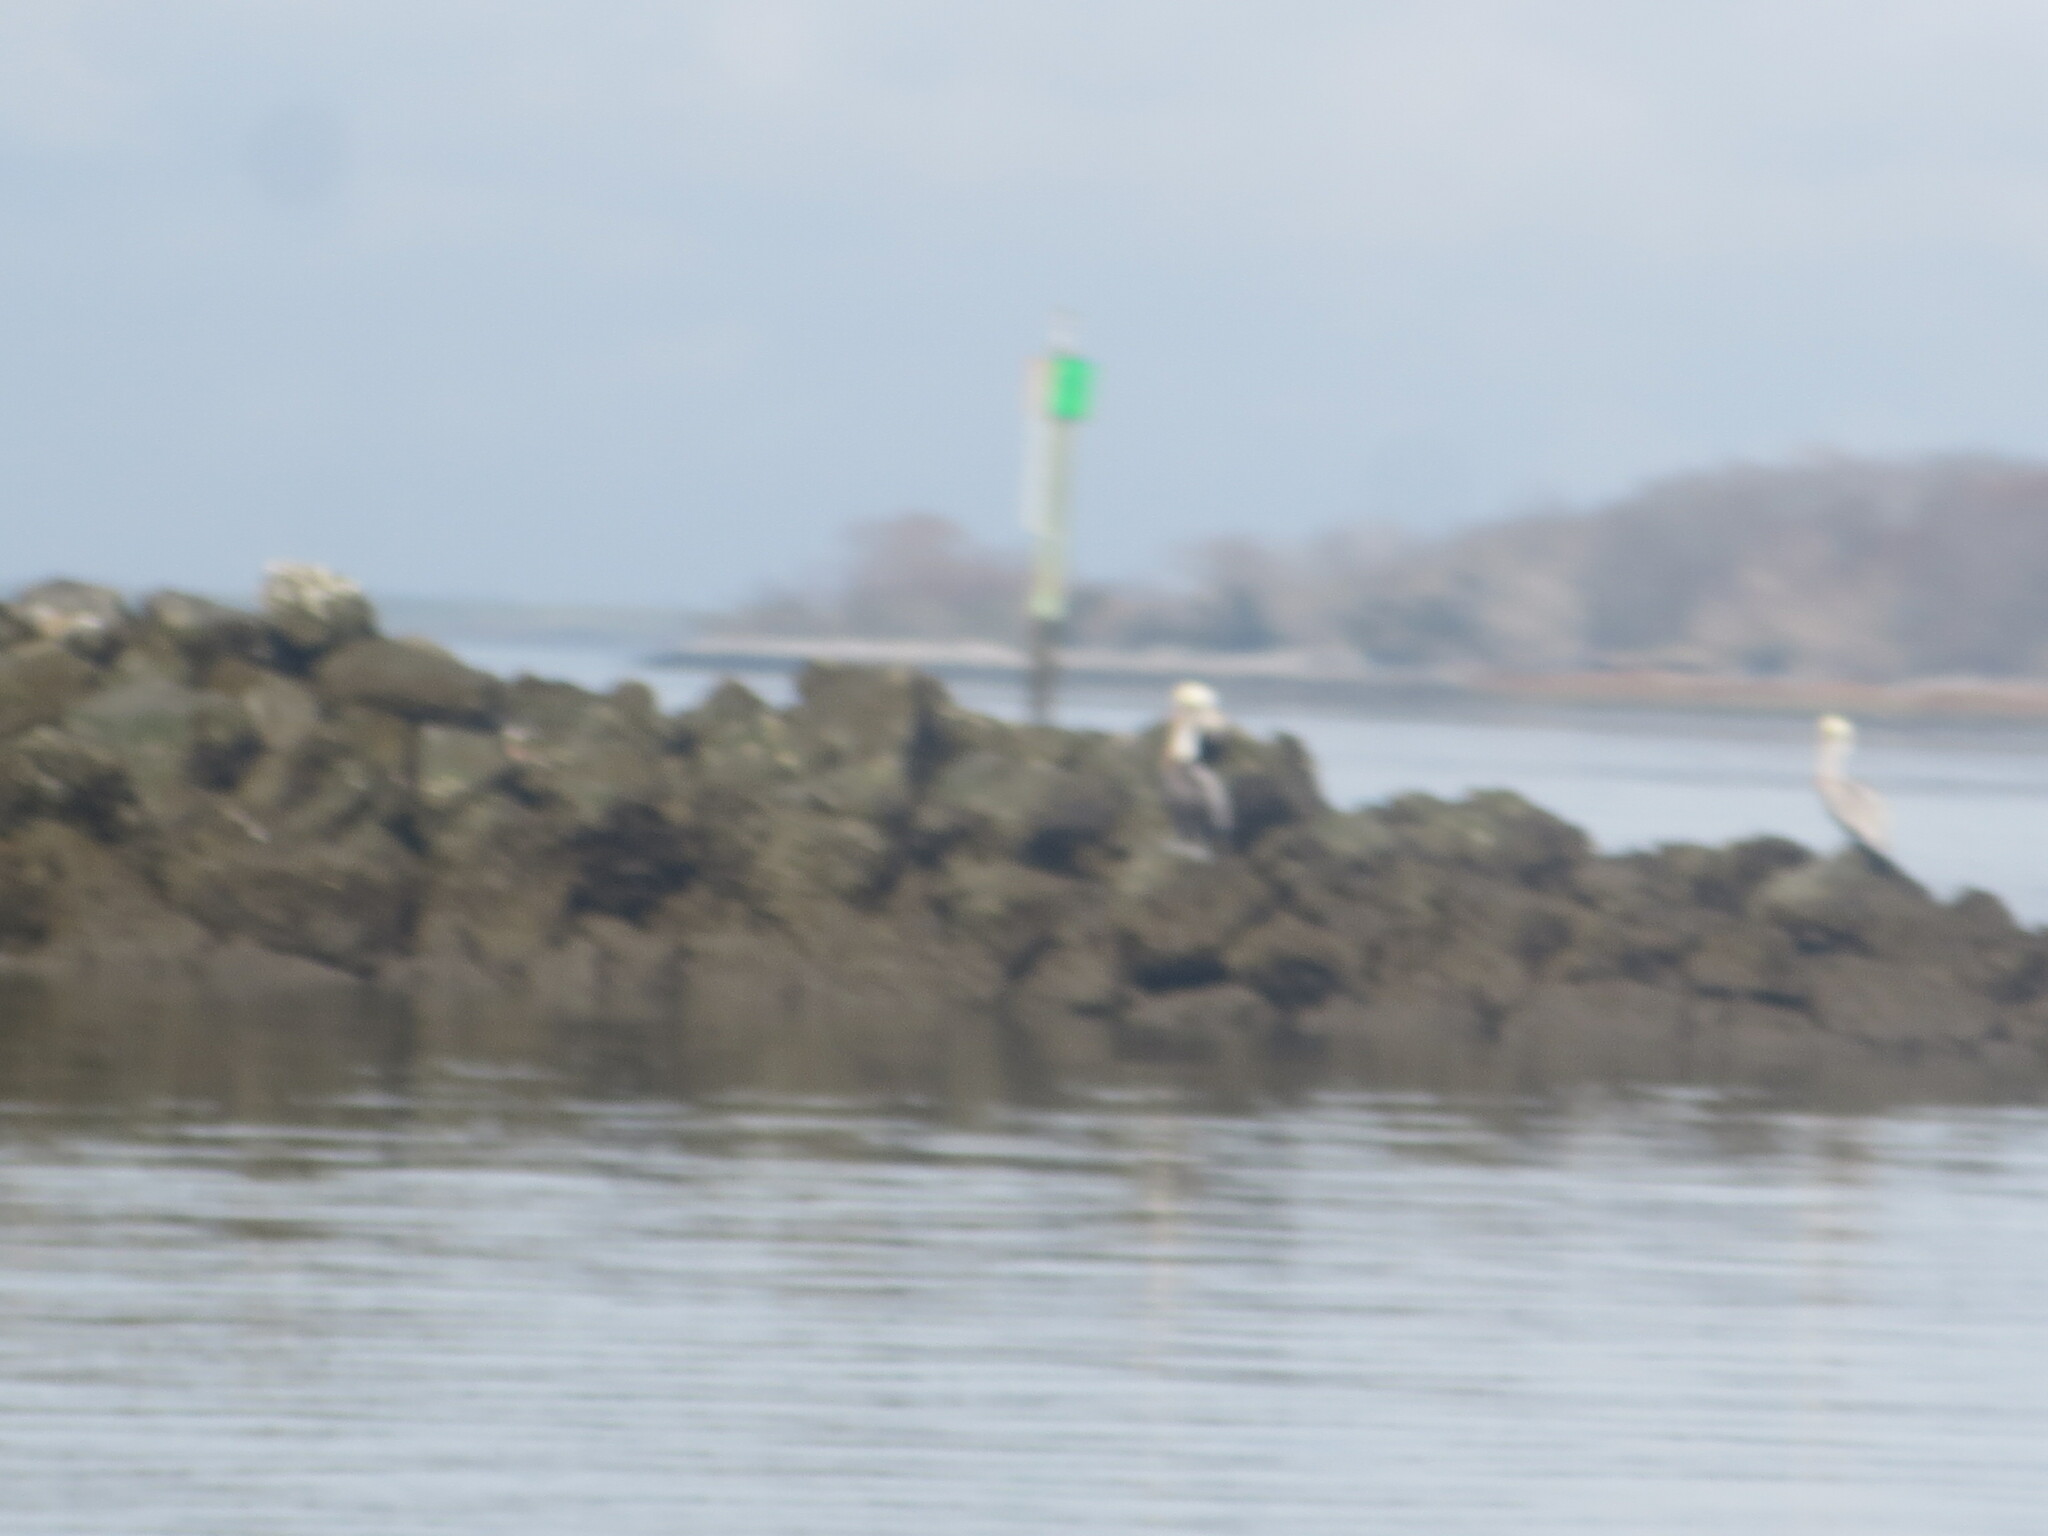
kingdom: Animalia
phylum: Chordata
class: Aves
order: Pelecaniformes
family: Pelecanidae
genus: Pelecanus
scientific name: Pelecanus occidentalis
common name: Brown pelican
